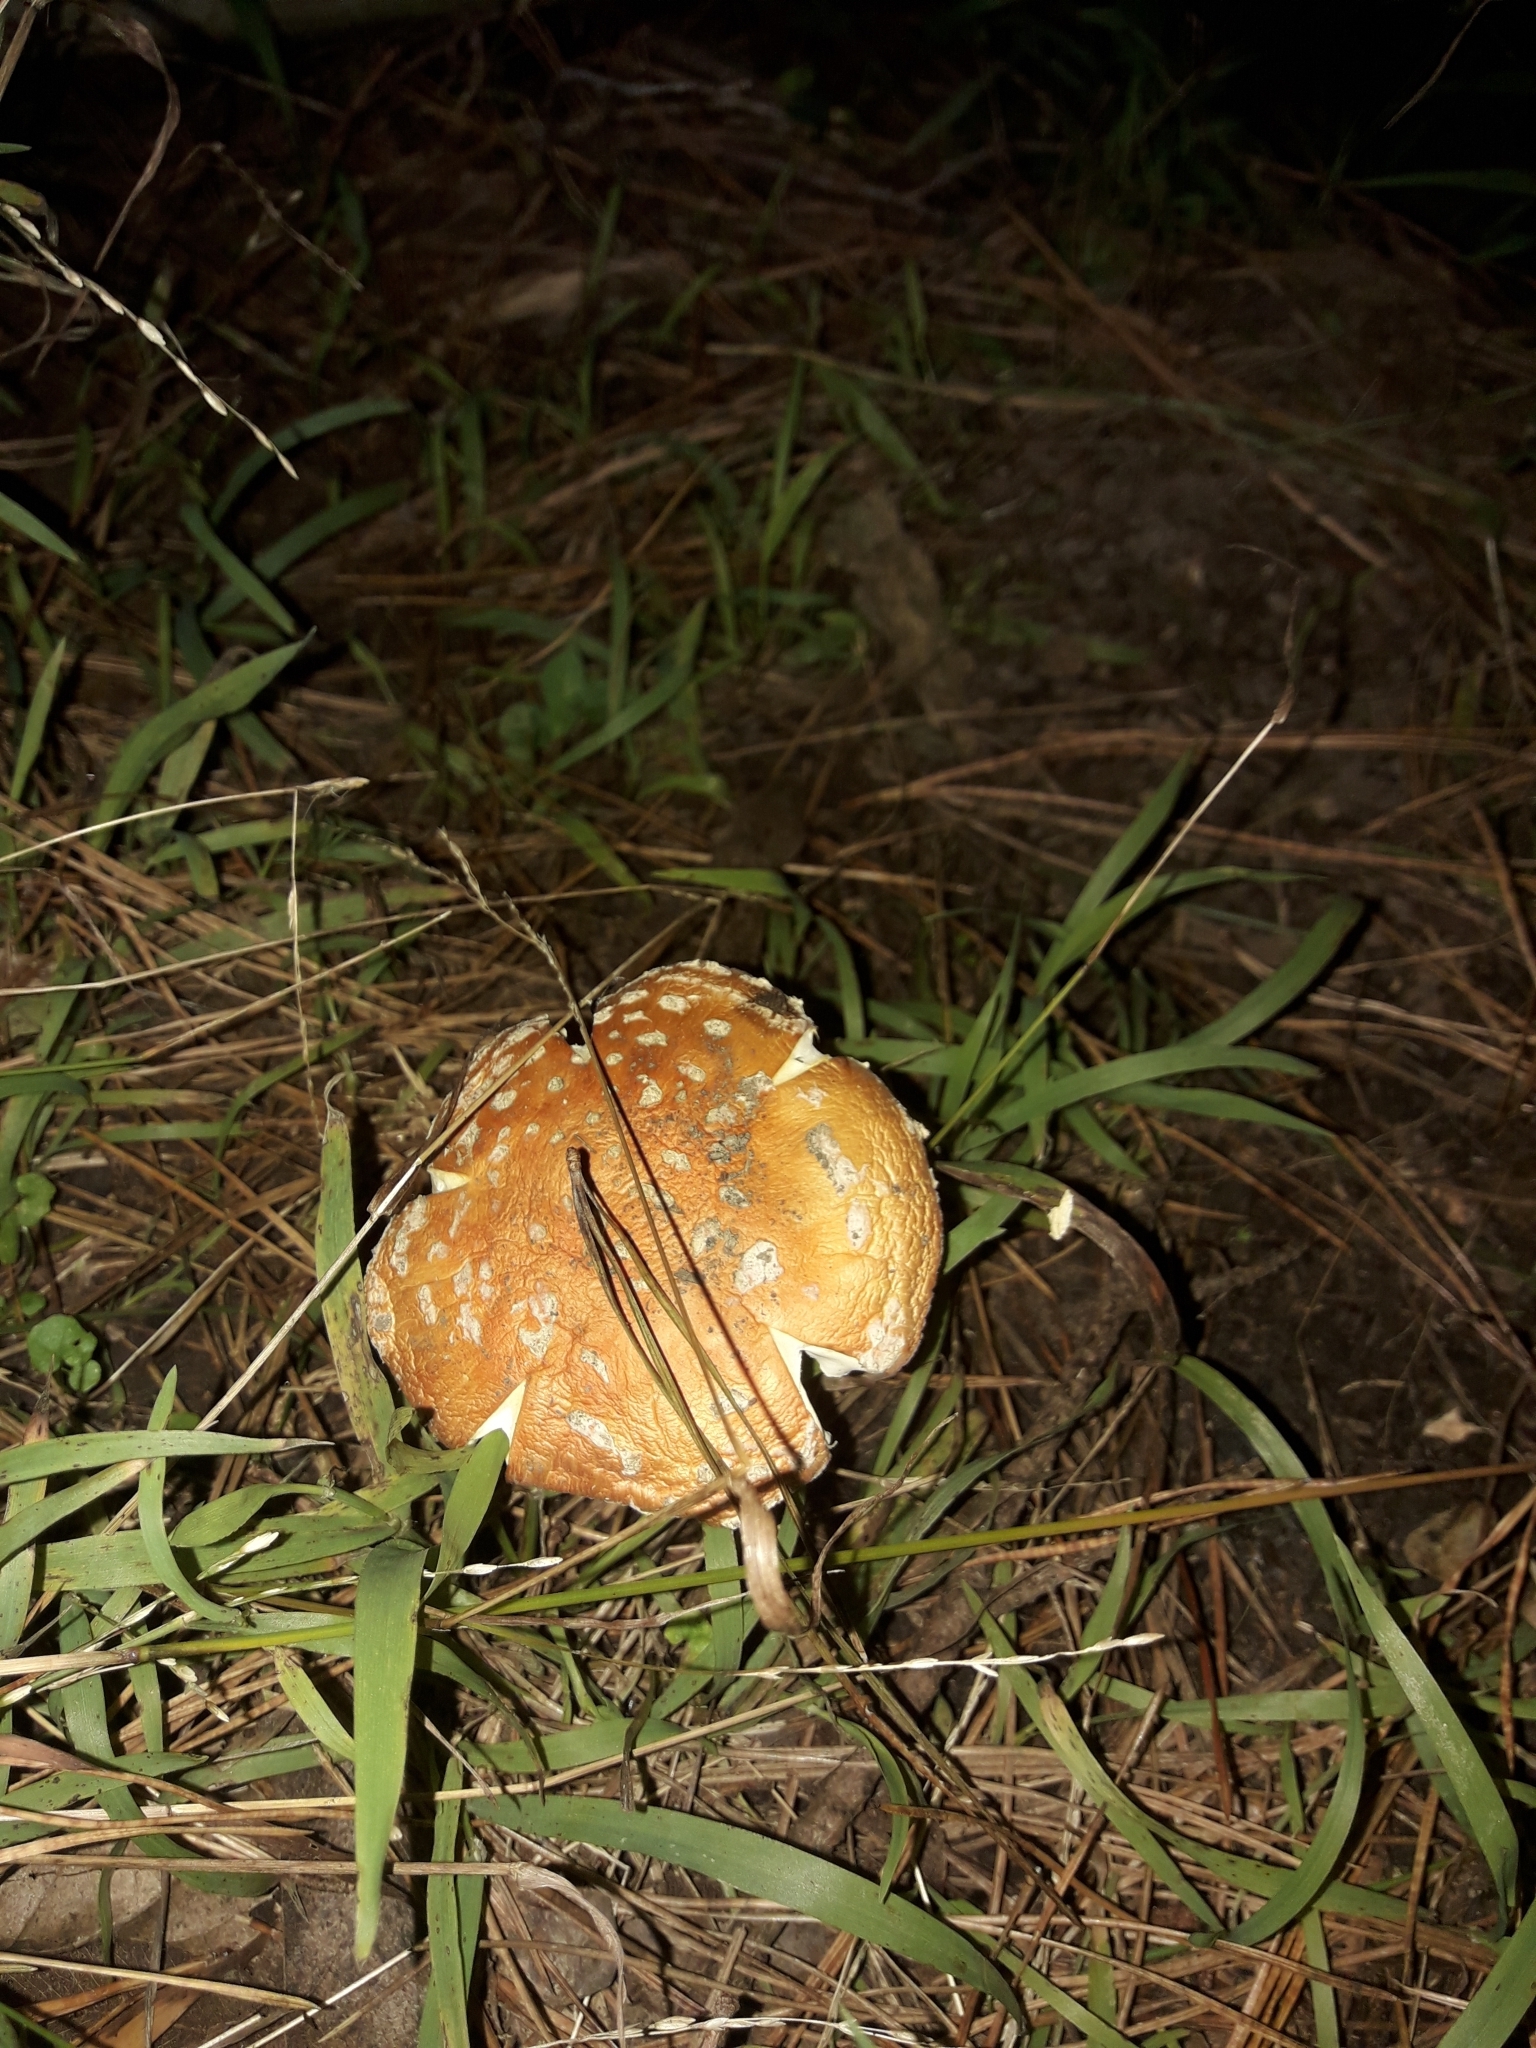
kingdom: Fungi
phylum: Basidiomycota
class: Agaricomycetes
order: Agaricales
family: Amanitaceae
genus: Amanita
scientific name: Amanita muscaria
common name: Fly agaric
